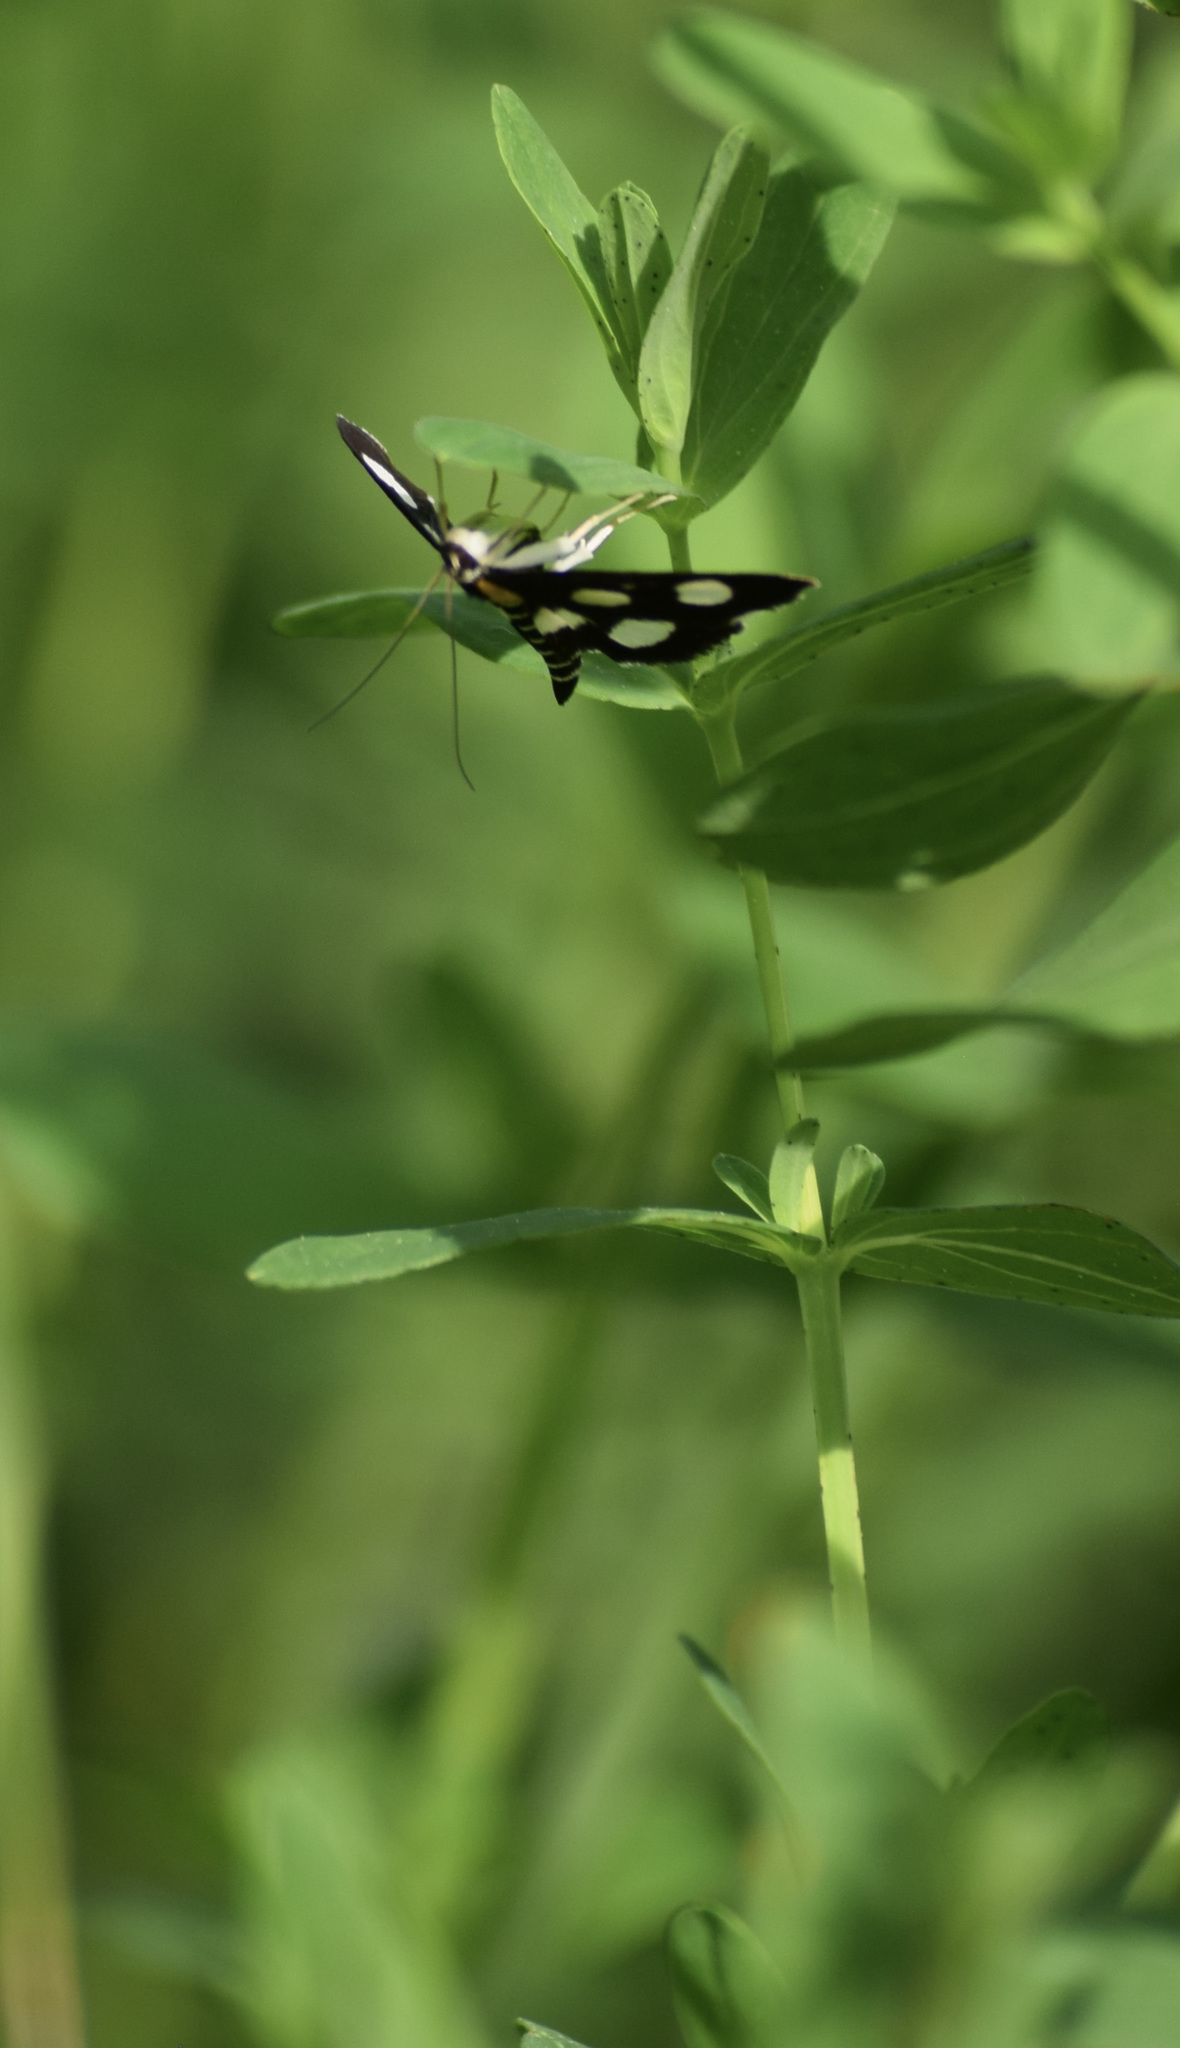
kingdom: Animalia
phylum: Arthropoda
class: Insecta
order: Lepidoptera
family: Crambidae
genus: Anania
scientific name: Anania funebris
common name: White-spotted sable moth
